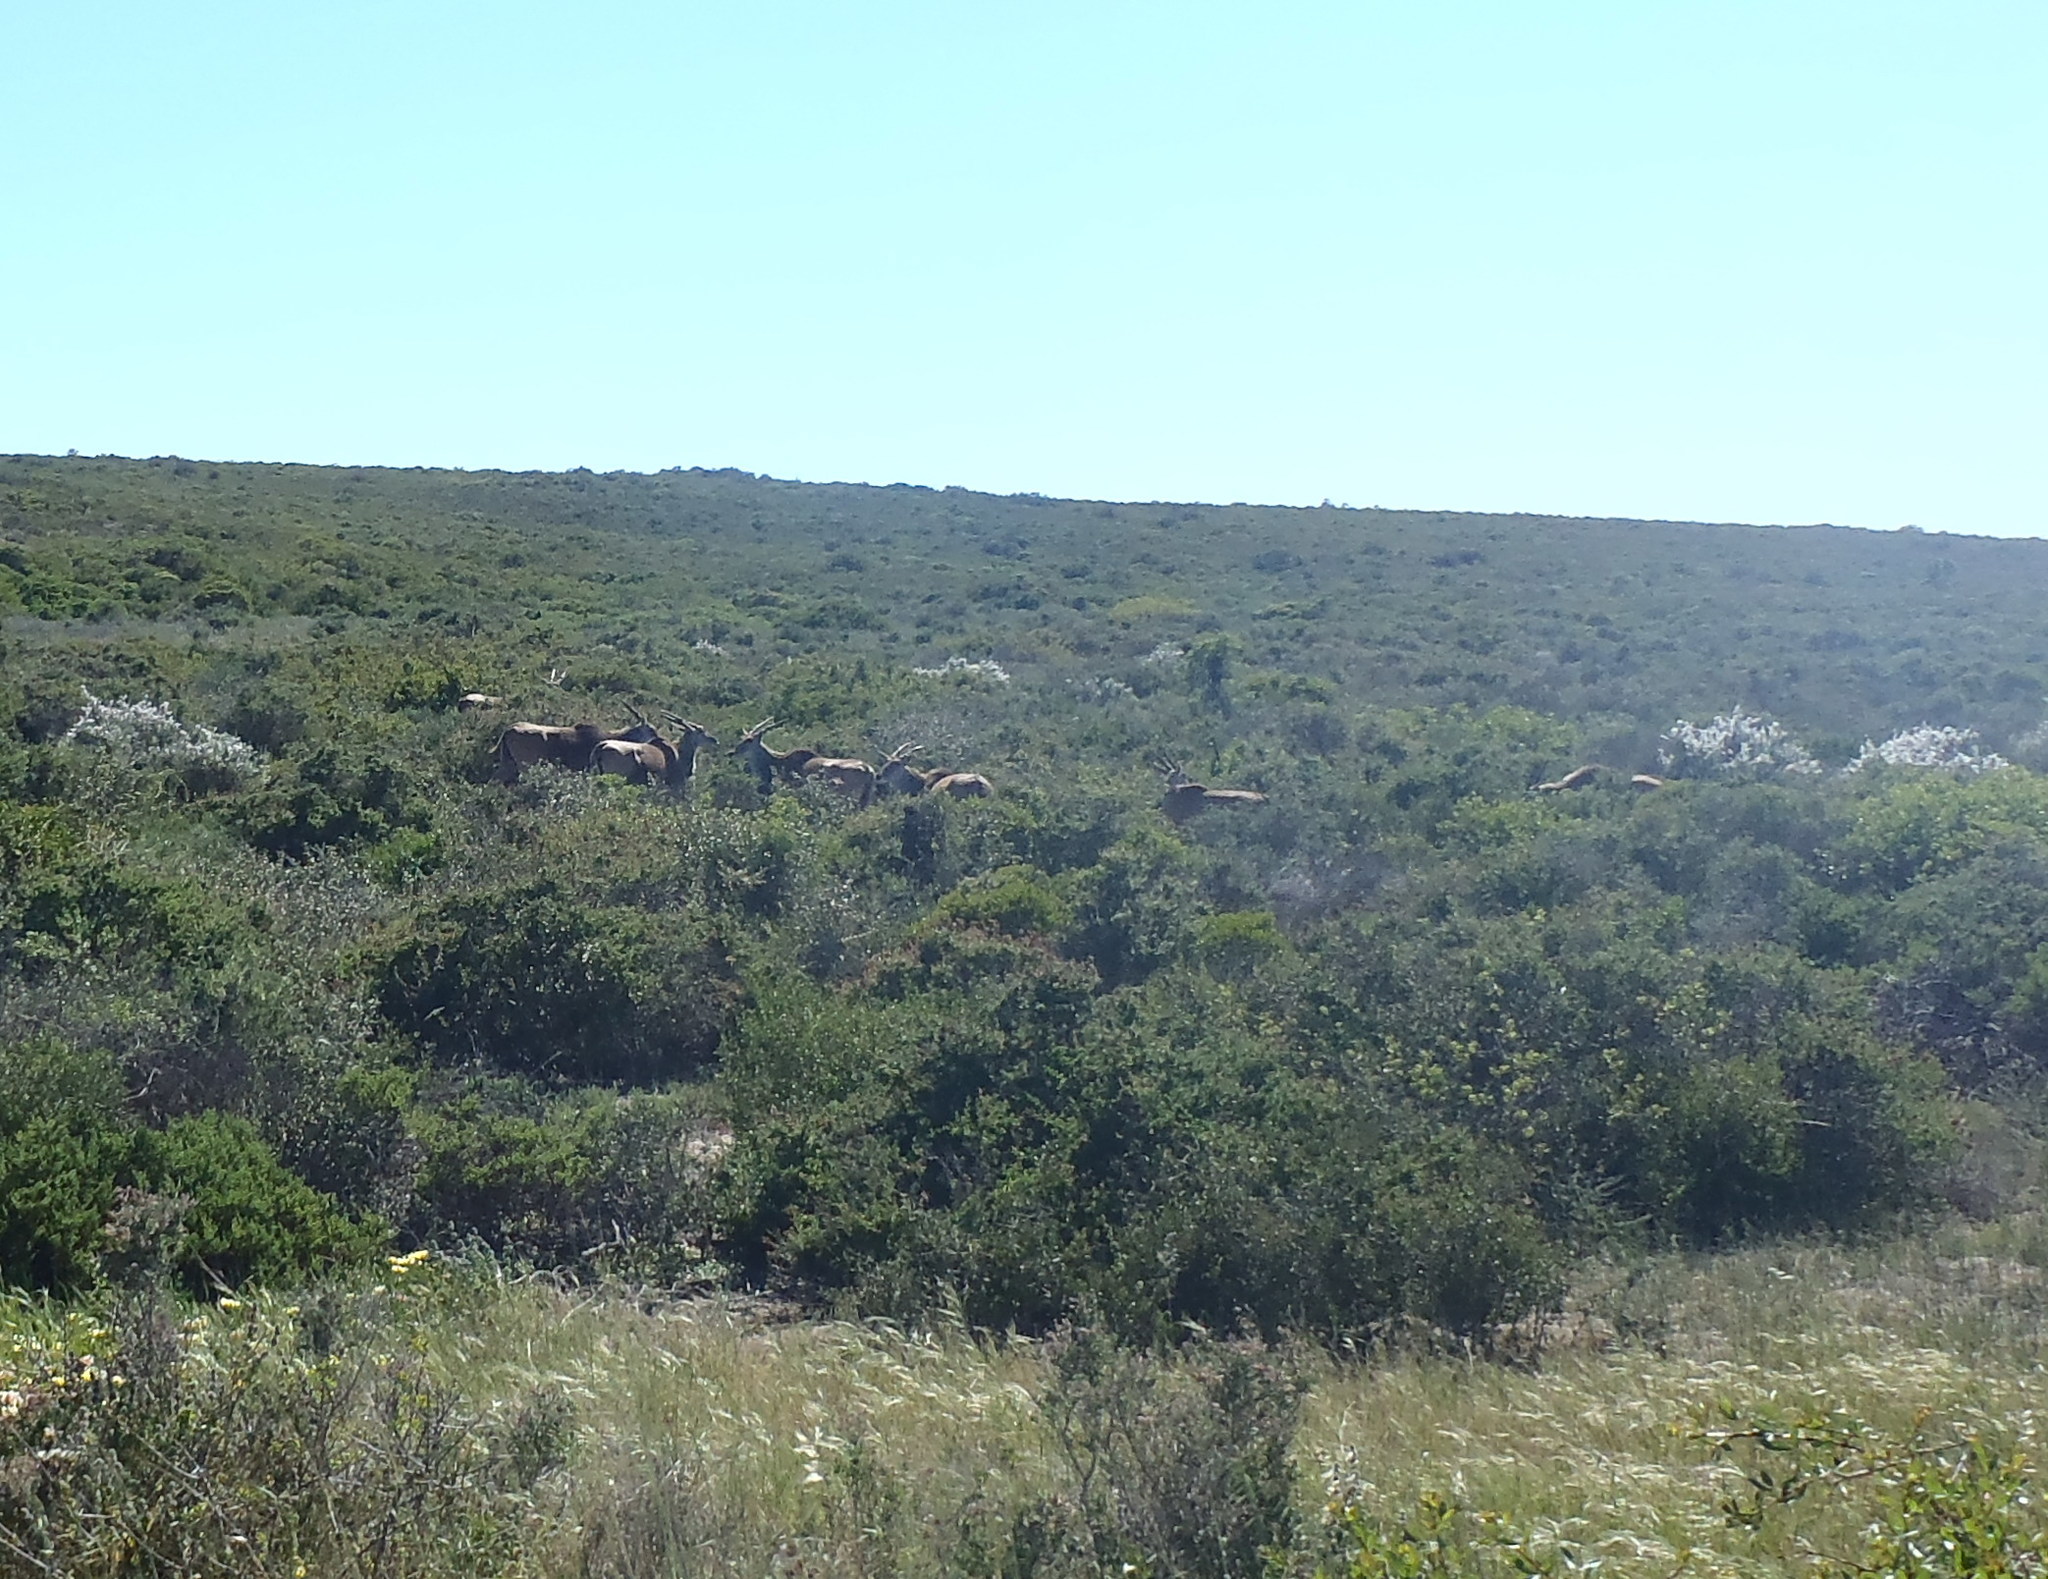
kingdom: Animalia
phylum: Chordata
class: Mammalia
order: Artiodactyla
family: Bovidae
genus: Taurotragus
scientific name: Taurotragus oryx
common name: Common eland
